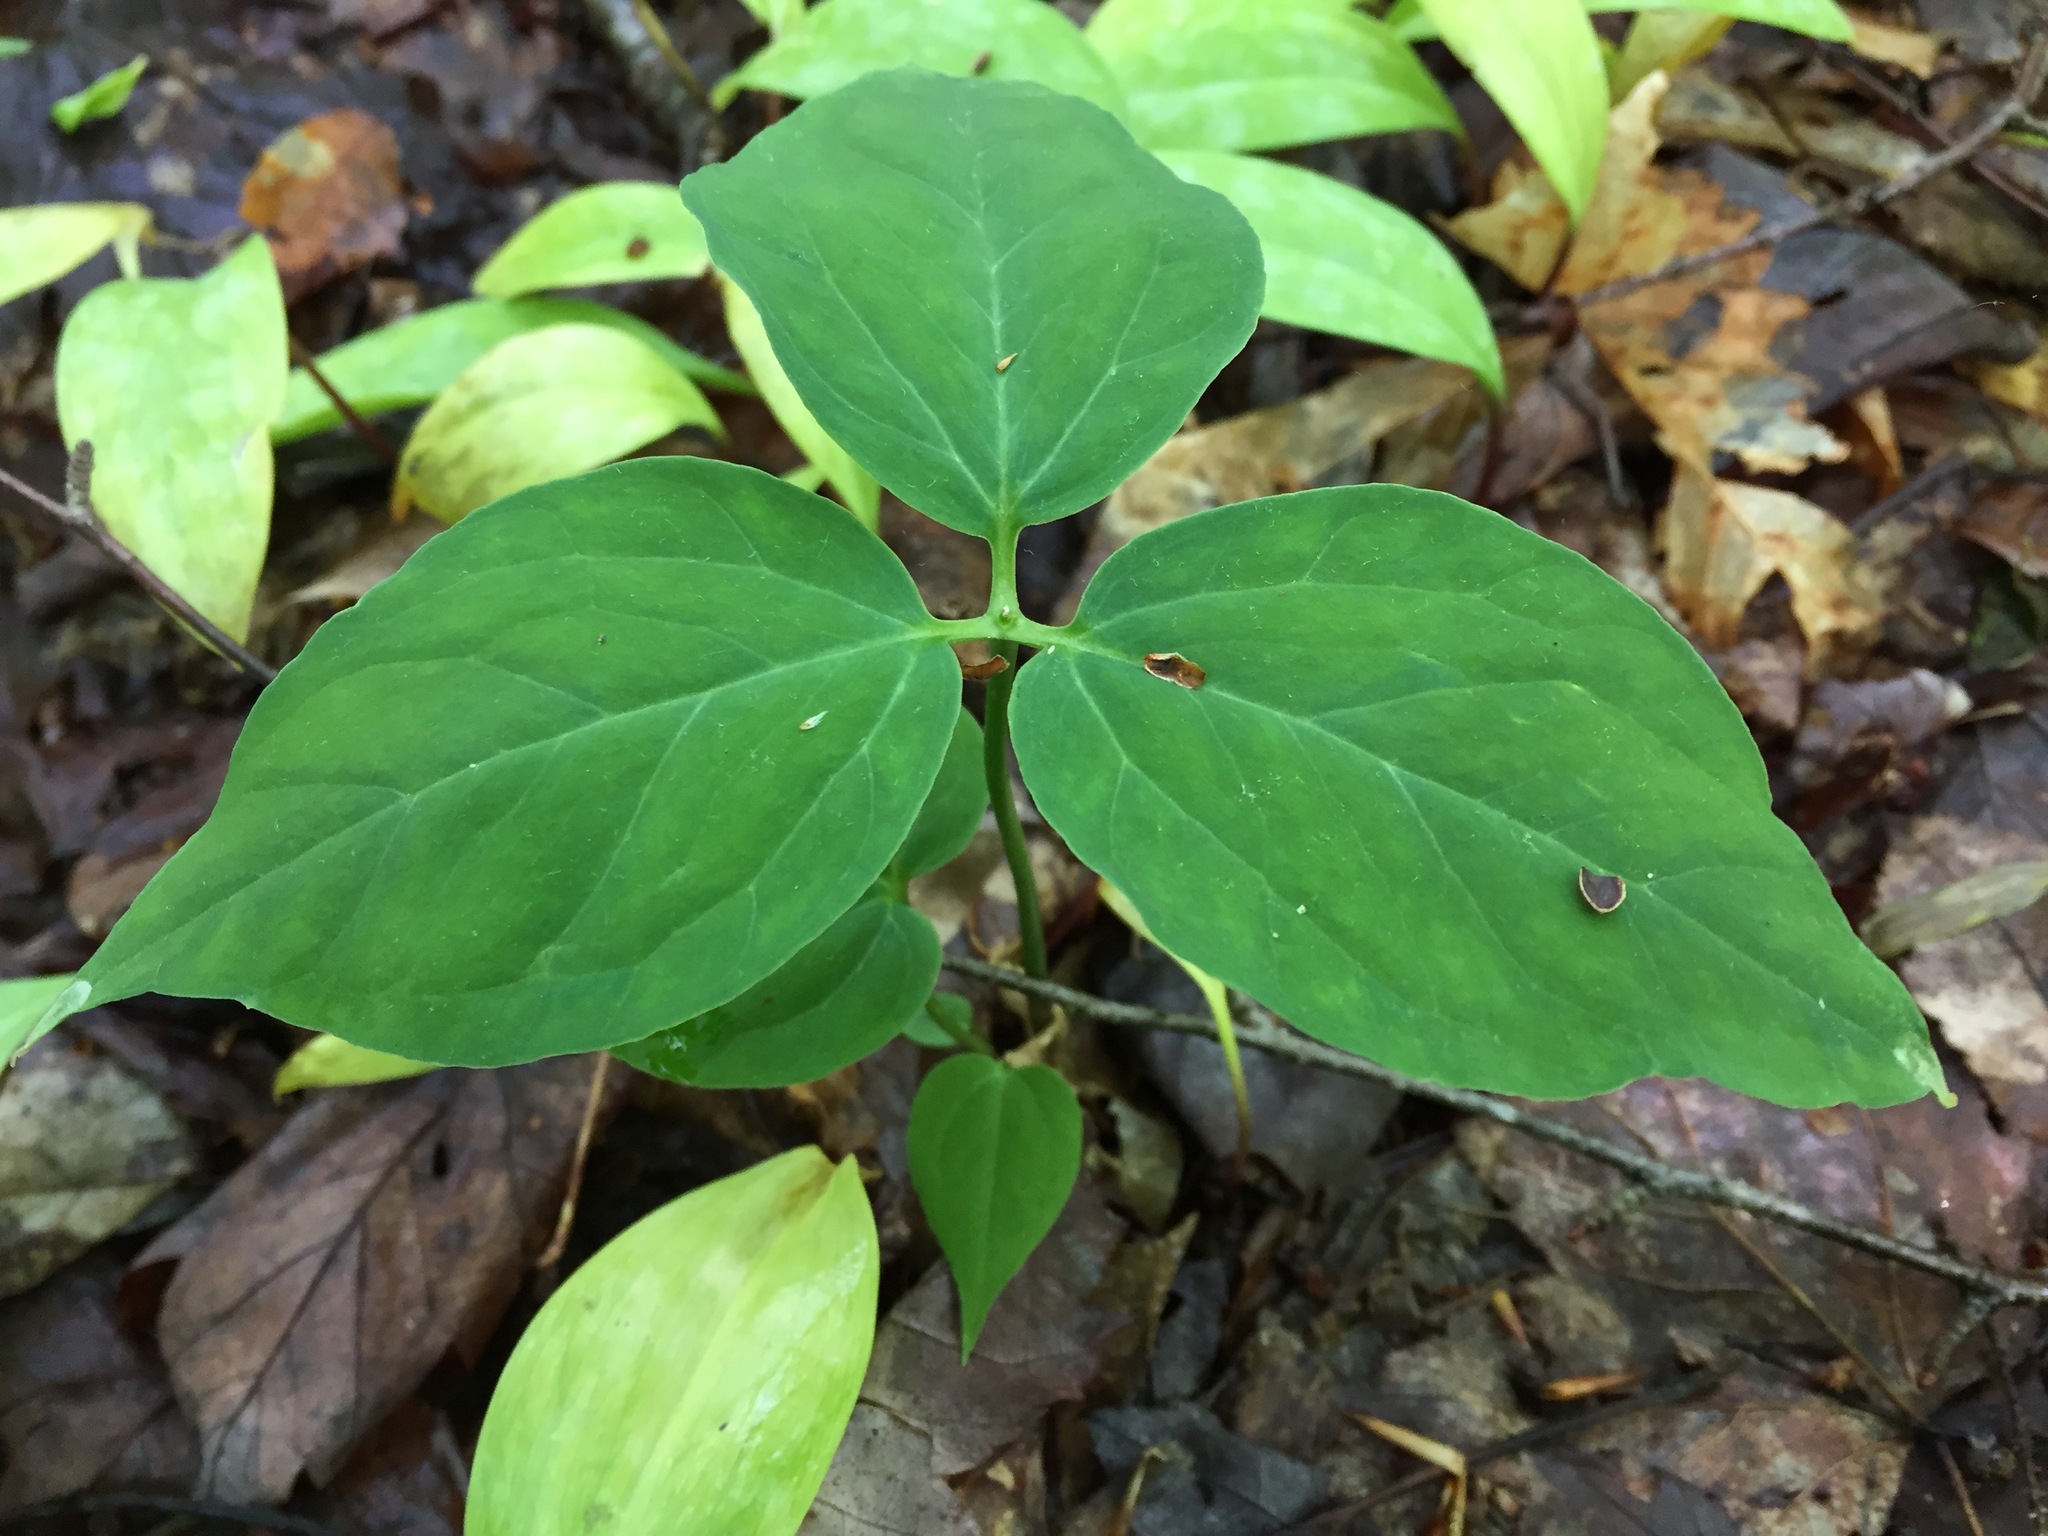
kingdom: Plantae
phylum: Tracheophyta
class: Liliopsida
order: Liliales
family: Melanthiaceae
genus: Trillium
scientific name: Trillium undulatum
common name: Paint trillium
